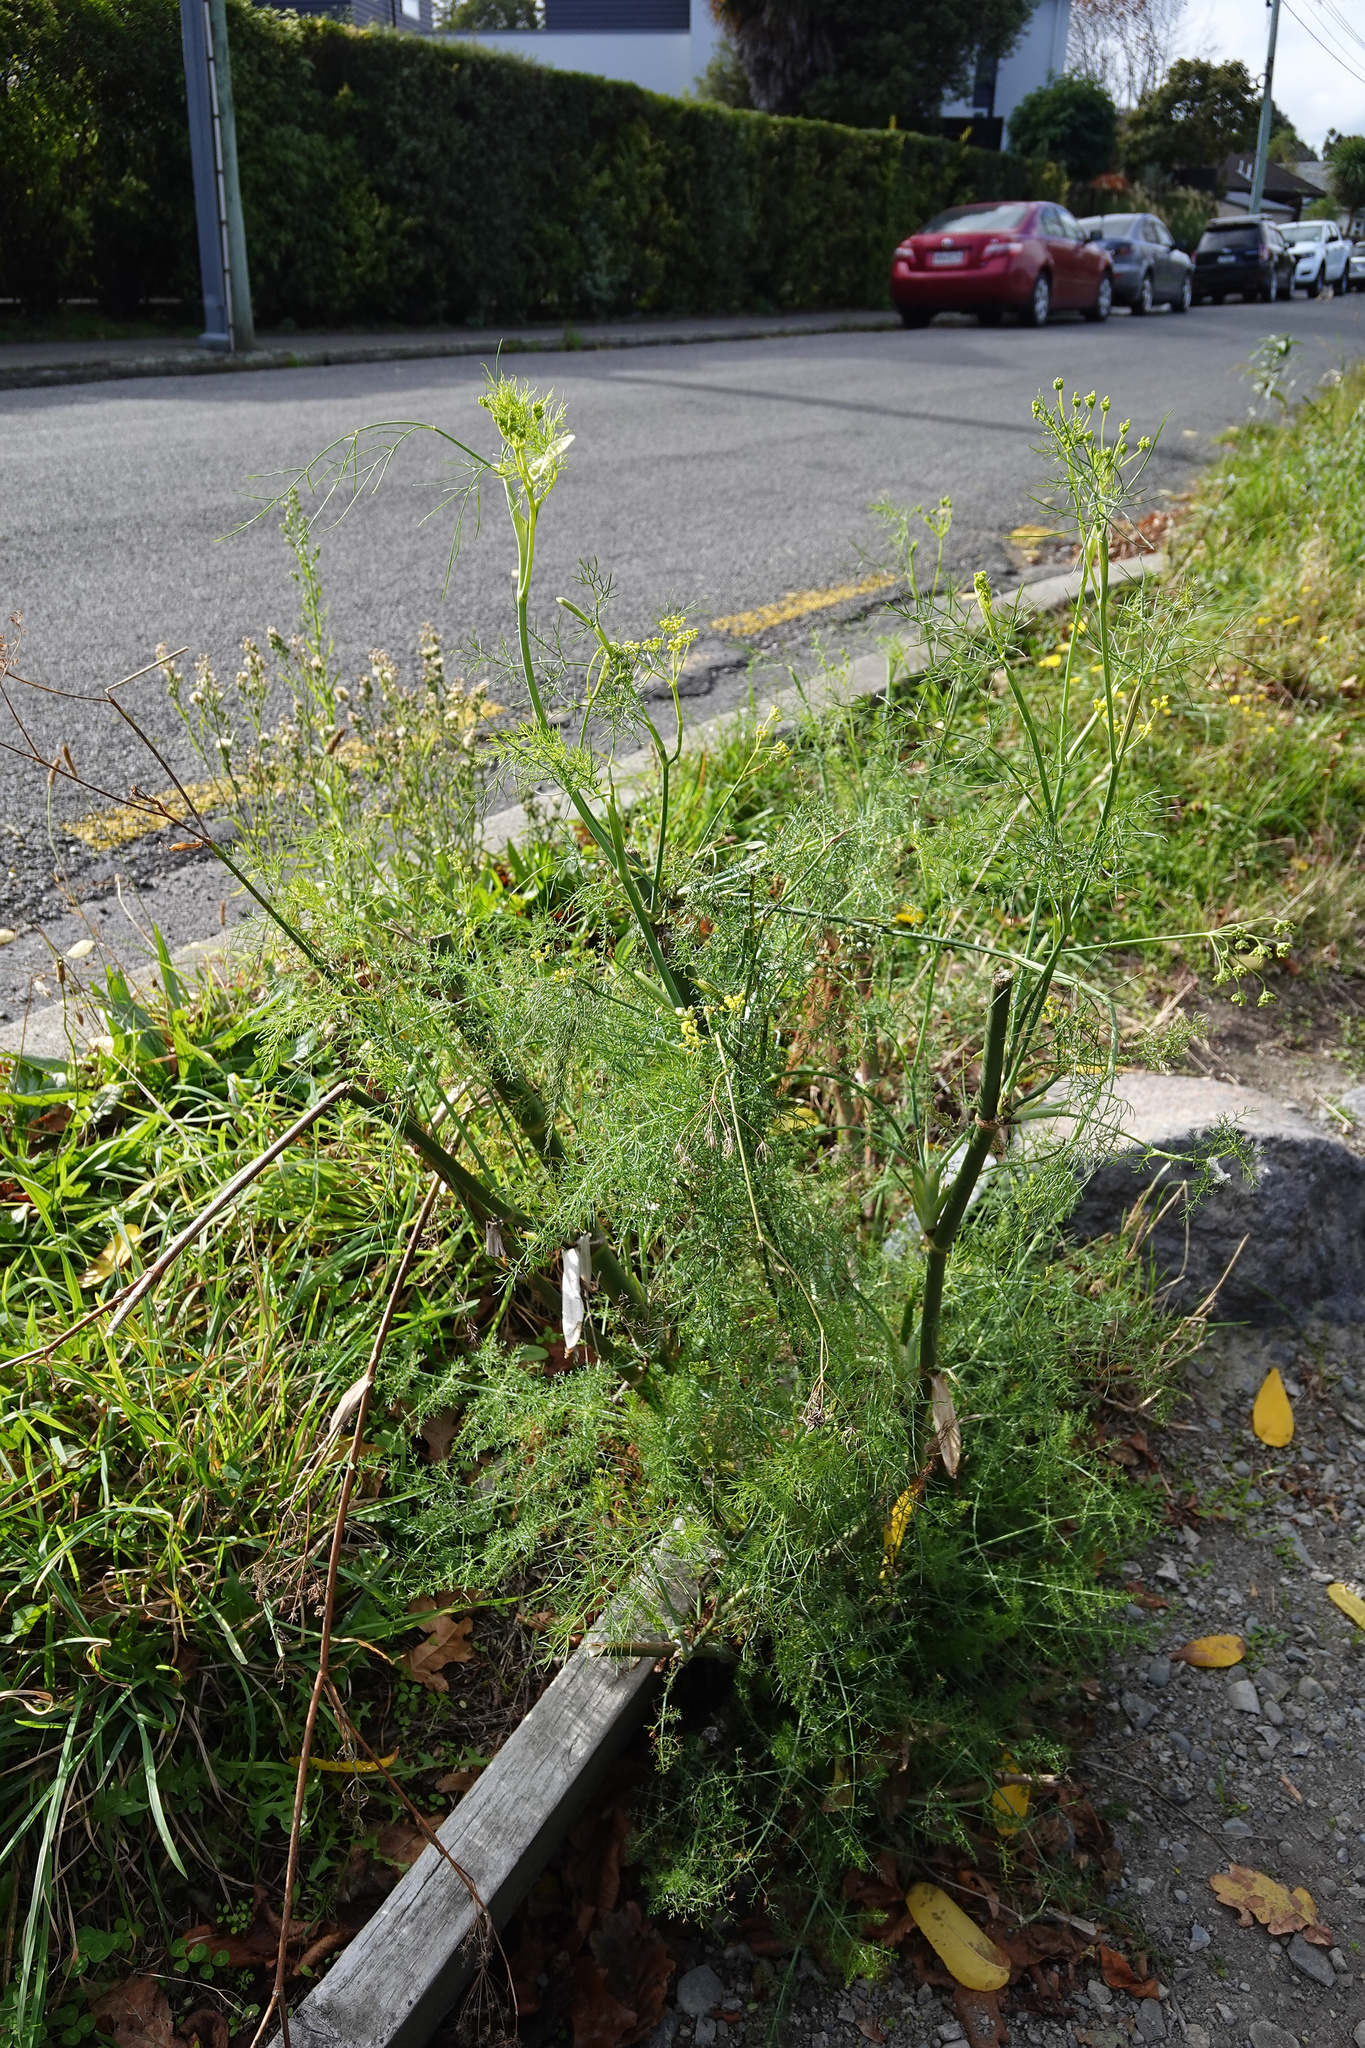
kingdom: Plantae
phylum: Tracheophyta
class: Magnoliopsida
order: Apiales
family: Apiaceae
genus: Foeniculum
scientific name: Foeniculum vulgare
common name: Fennel
